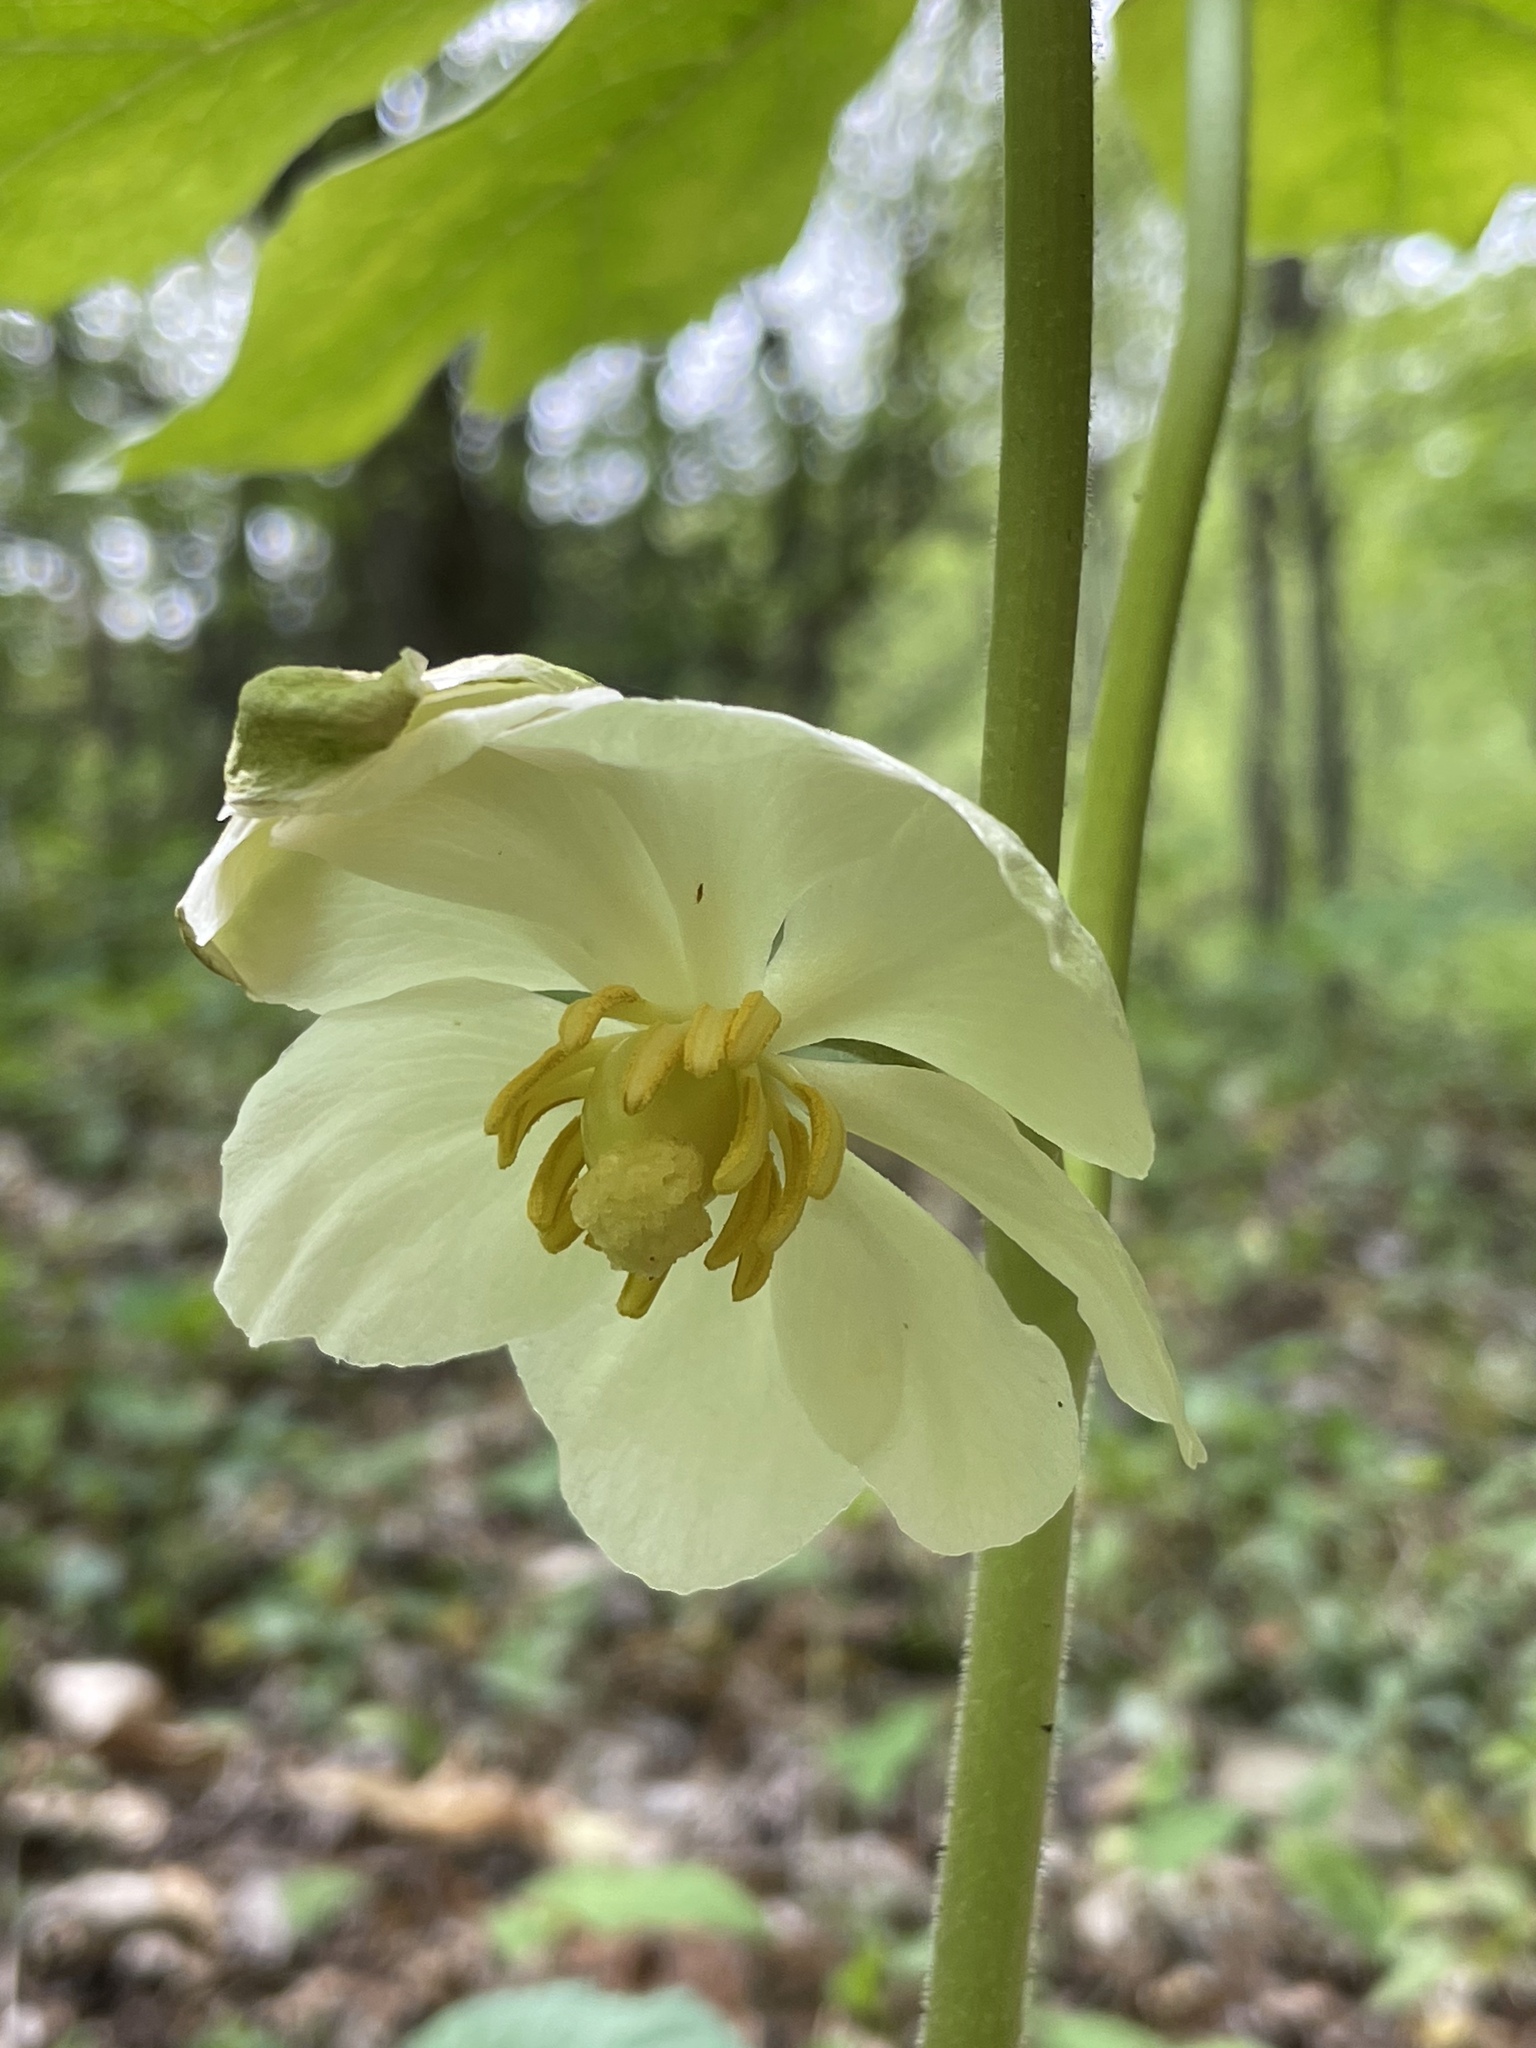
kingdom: Plantae
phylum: Tracheophyta
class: Magnoliopsida
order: Ranunculales
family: Berberidaceae
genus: Podophyllum
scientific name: Podophyllum peltatum
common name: Wild mandrake
